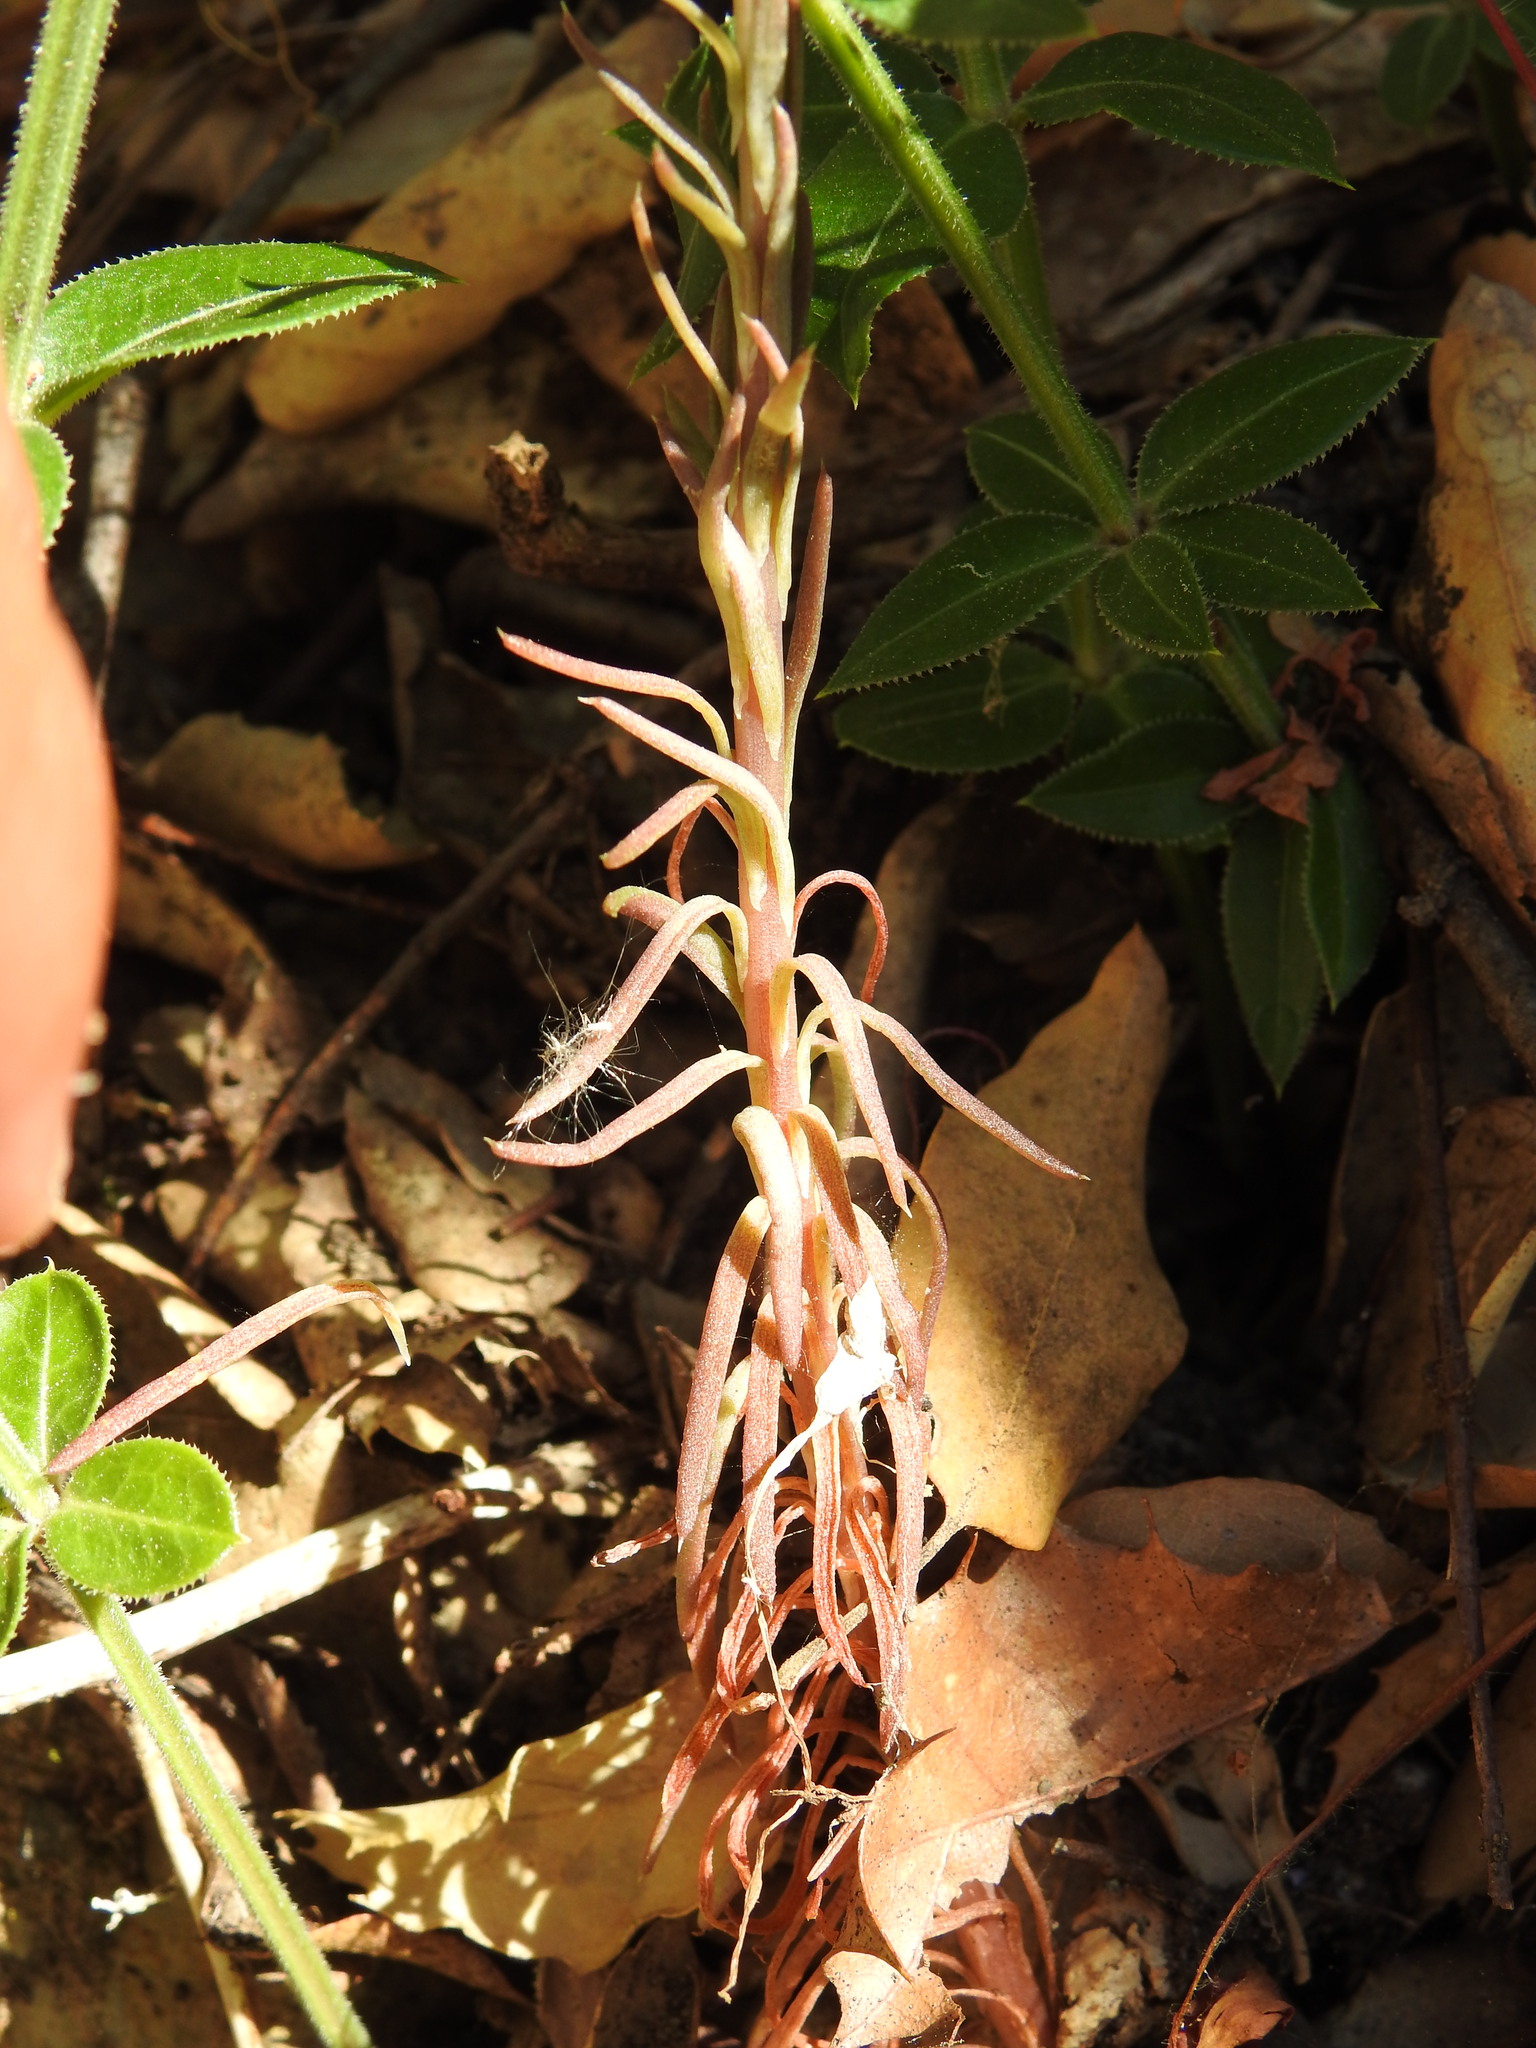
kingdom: Plantae
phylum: Tracheophyta
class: Magnoliopsida
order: Saxifragales
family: Crassulaceae
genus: Petrosedum
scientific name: Petrosedum forsterianum
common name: Forster's stonecrop
